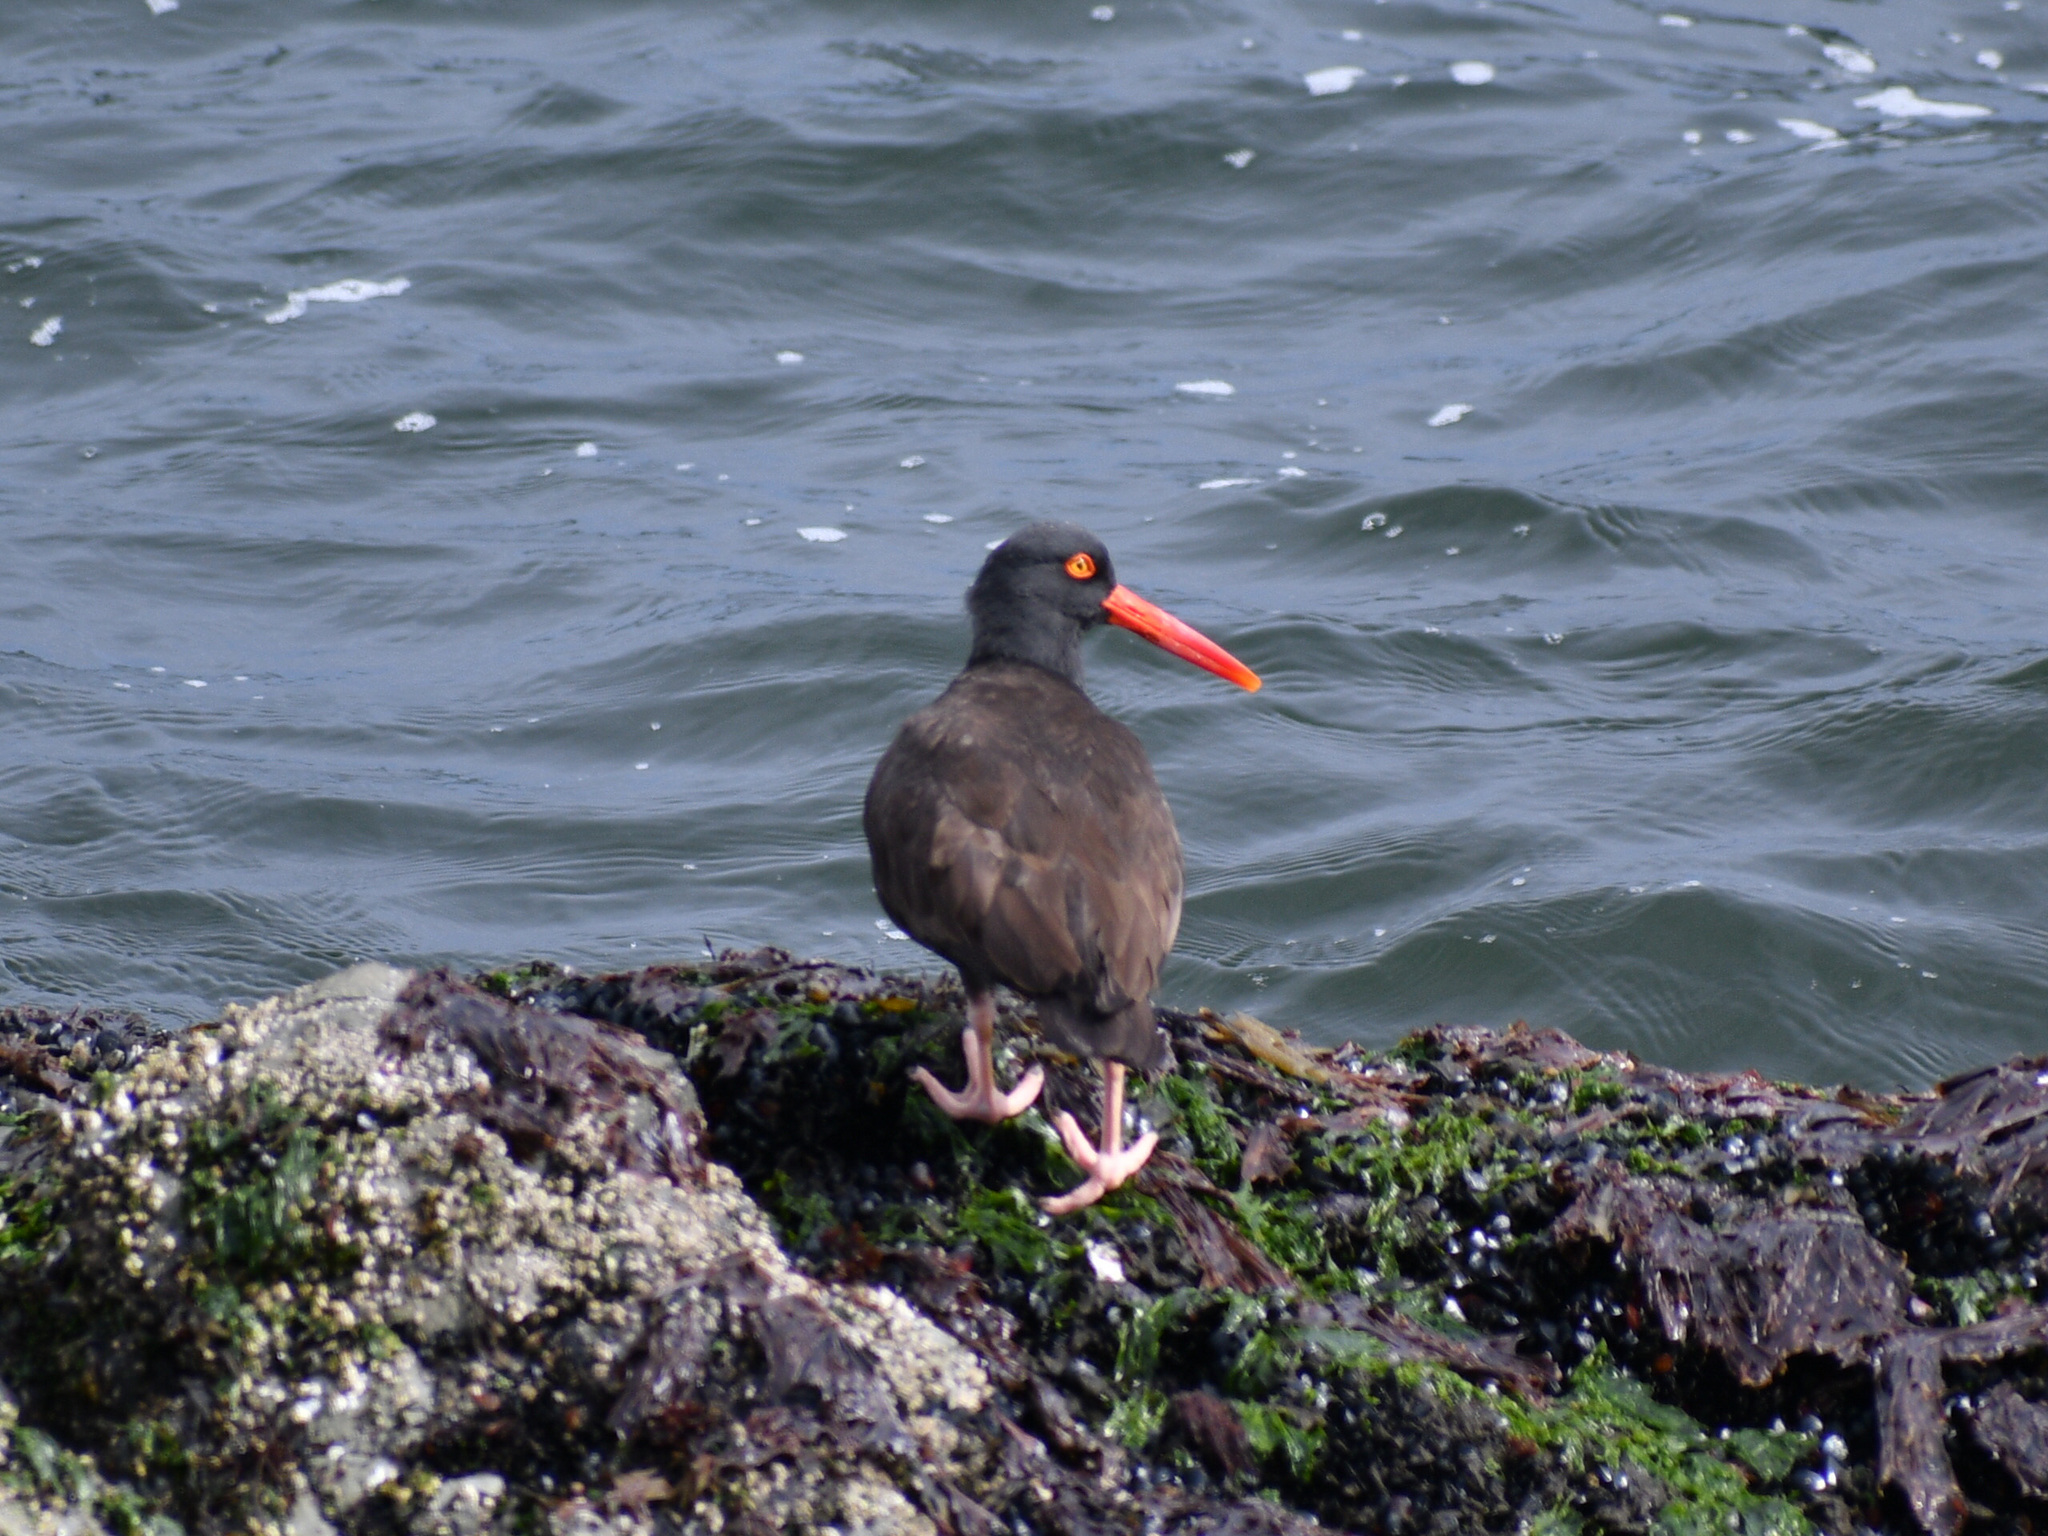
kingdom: Animalia
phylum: Chordata
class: Aves
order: Charadriiformes
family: Haematopodidae
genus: Haematopus
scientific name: Haematopus bachmani
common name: Black oystercatcher
